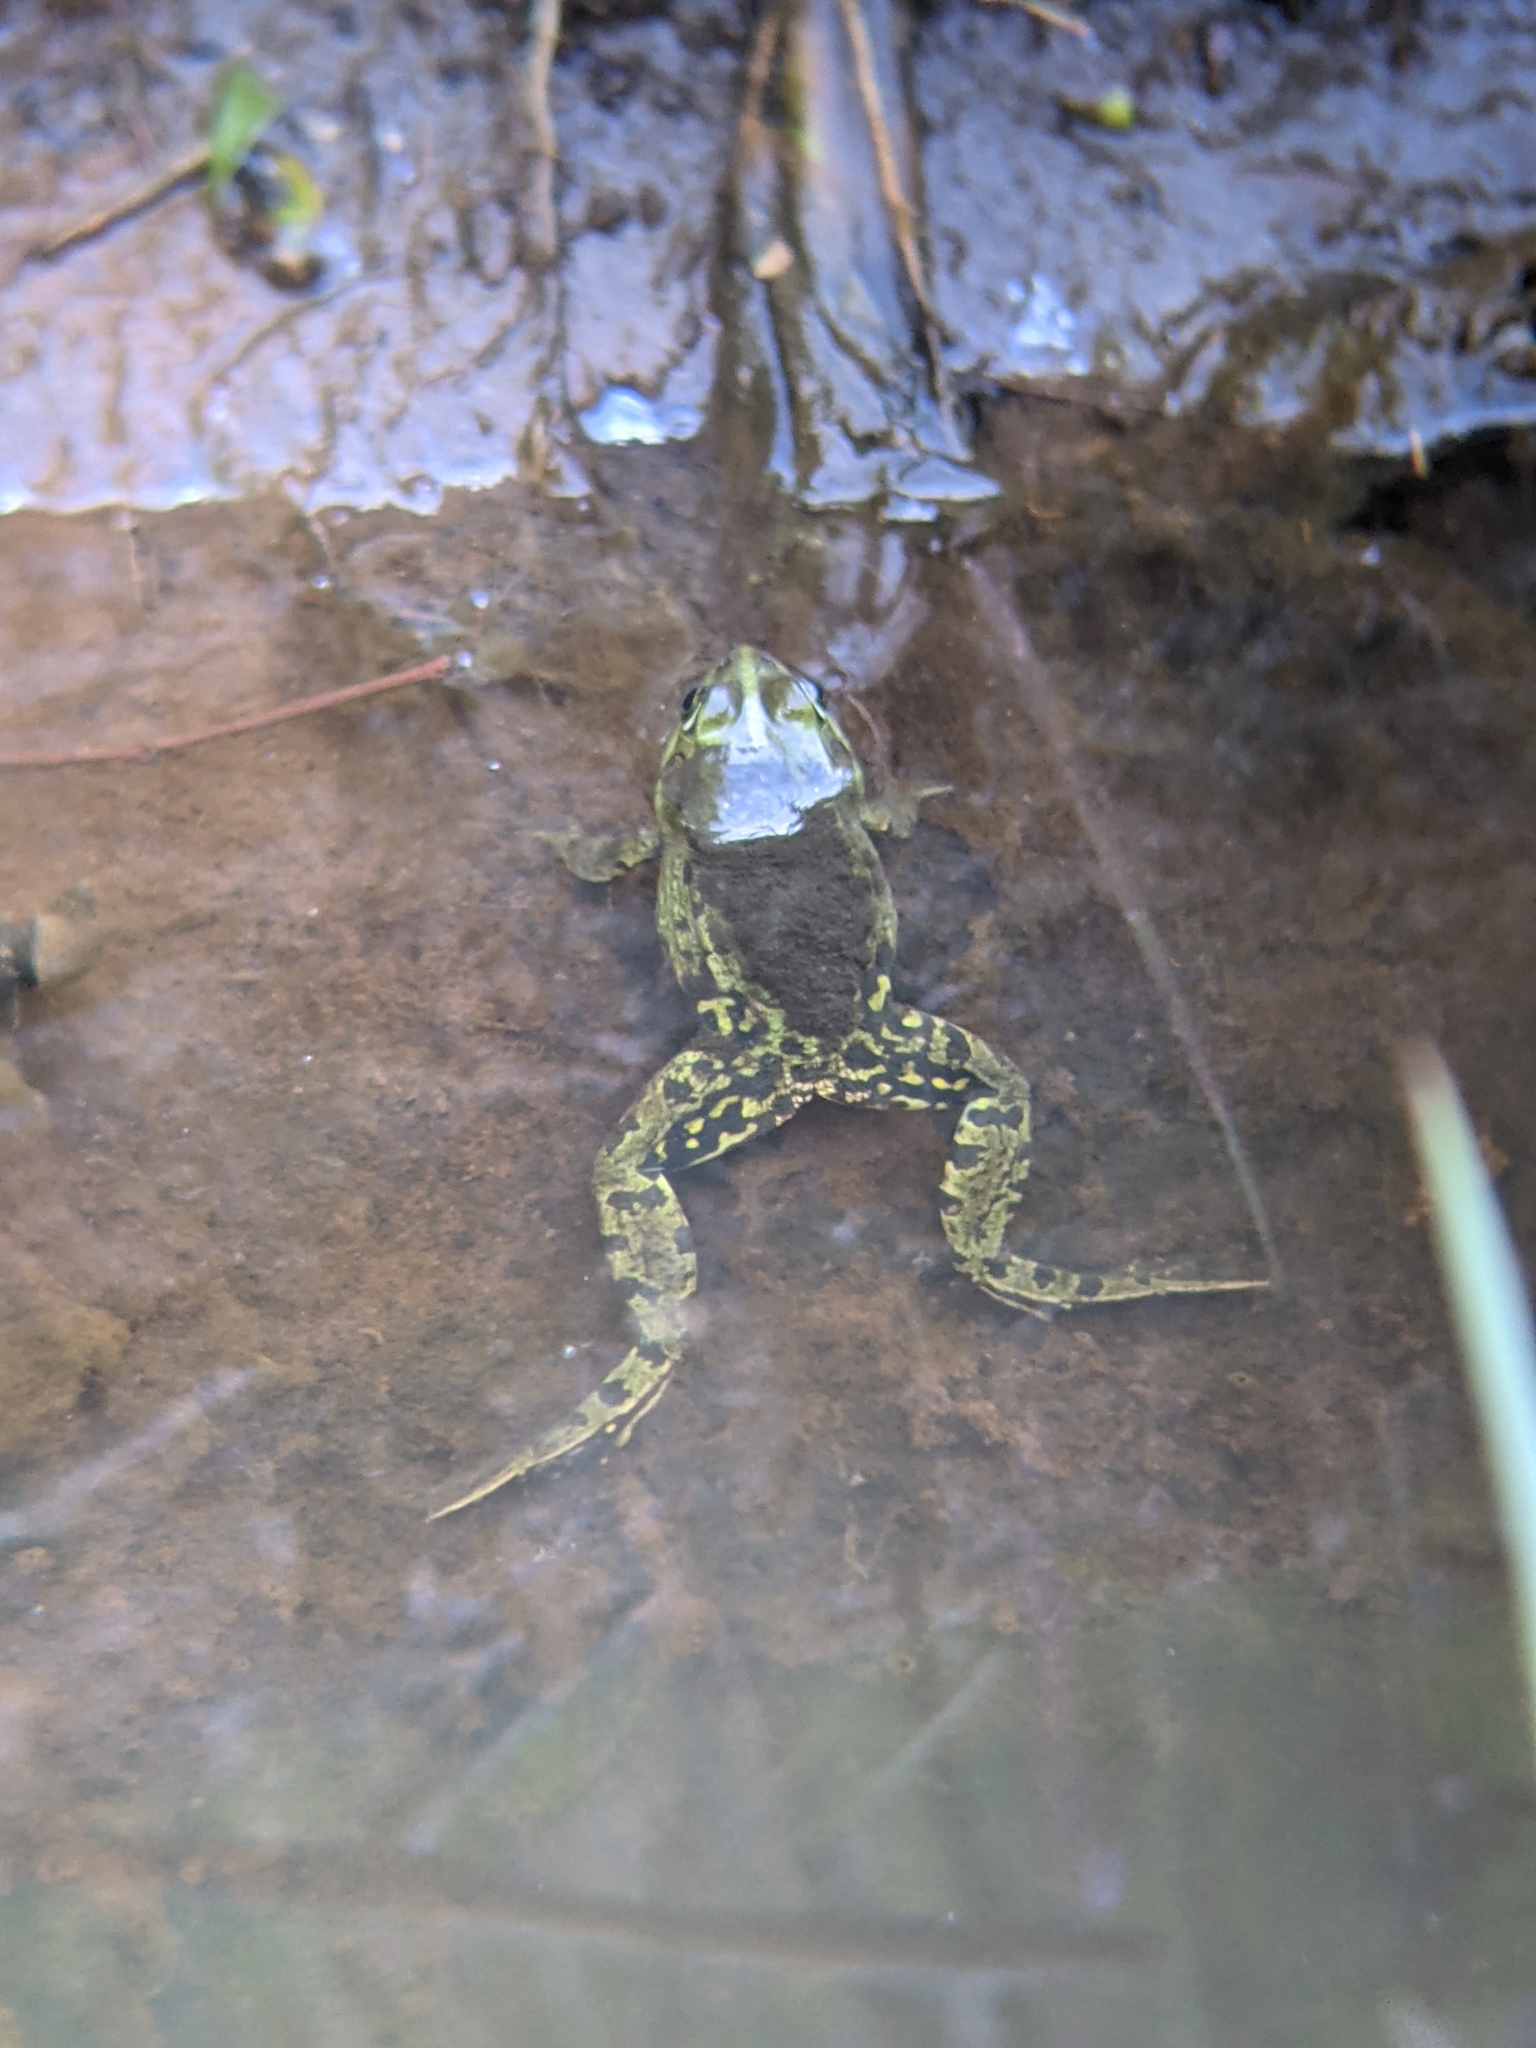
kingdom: Animalia
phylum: Chordata
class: Amphibia
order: Anura
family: Ranidae
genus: Pelophylax
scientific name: Pelophylax
